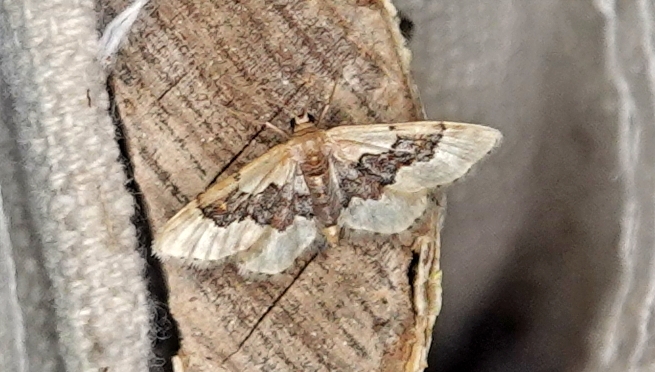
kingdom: Animalia
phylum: Arthropoda
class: Insecta
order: Lepidoptera
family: Geometridae
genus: Idaea
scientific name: Idaea gemmata
